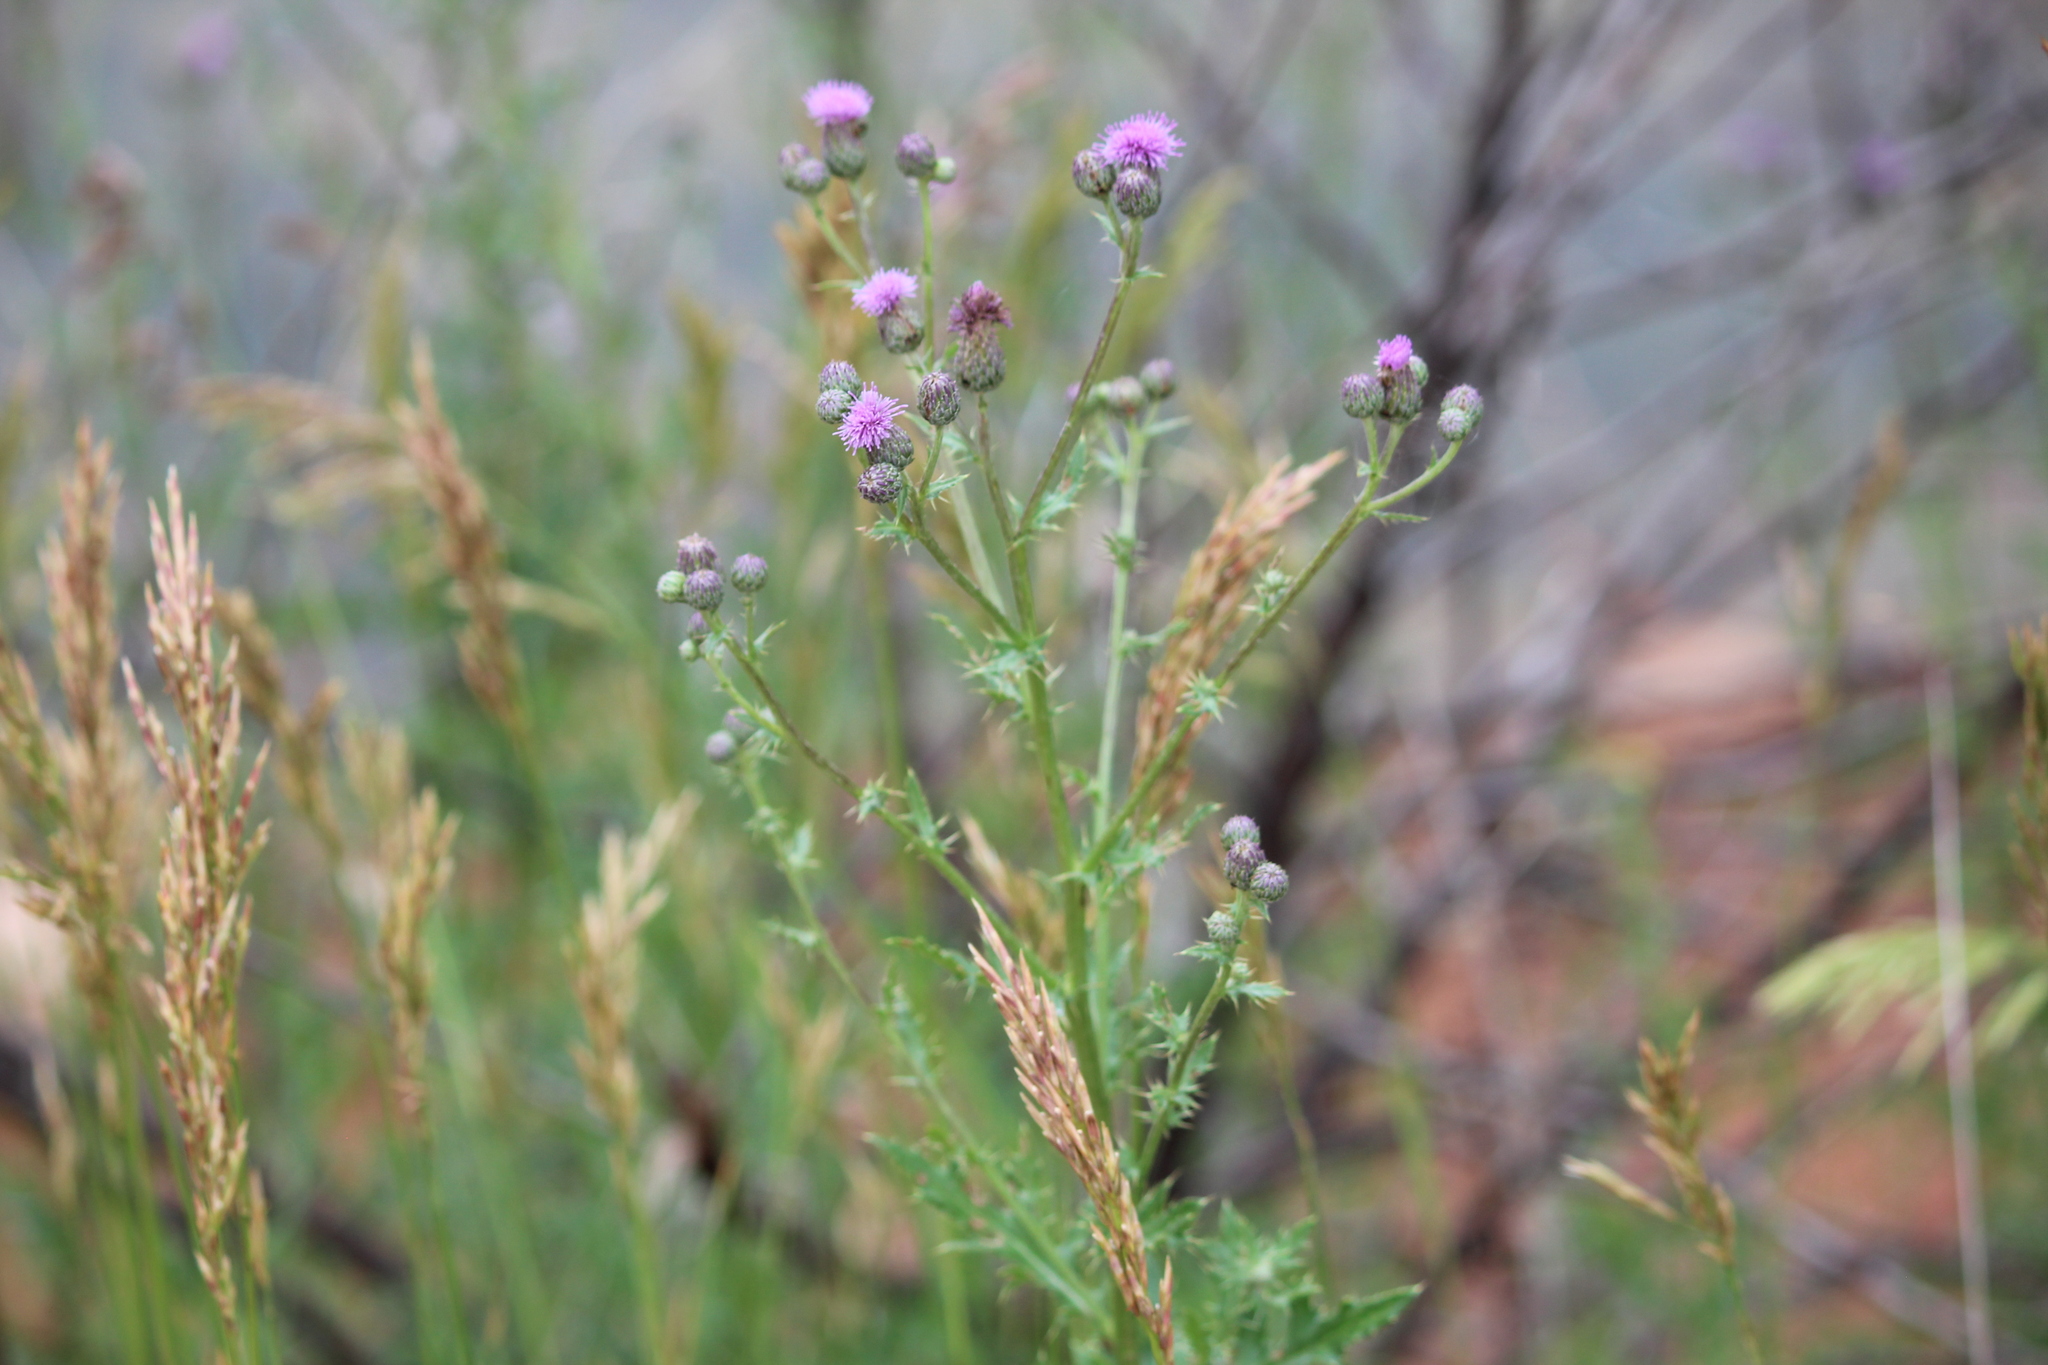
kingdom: Plantae
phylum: Tracheophyta
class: Magnoliopsida
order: Asterales
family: Asteraceae
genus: Cirsium
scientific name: Cirsium arvense
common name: Creeping thistle
